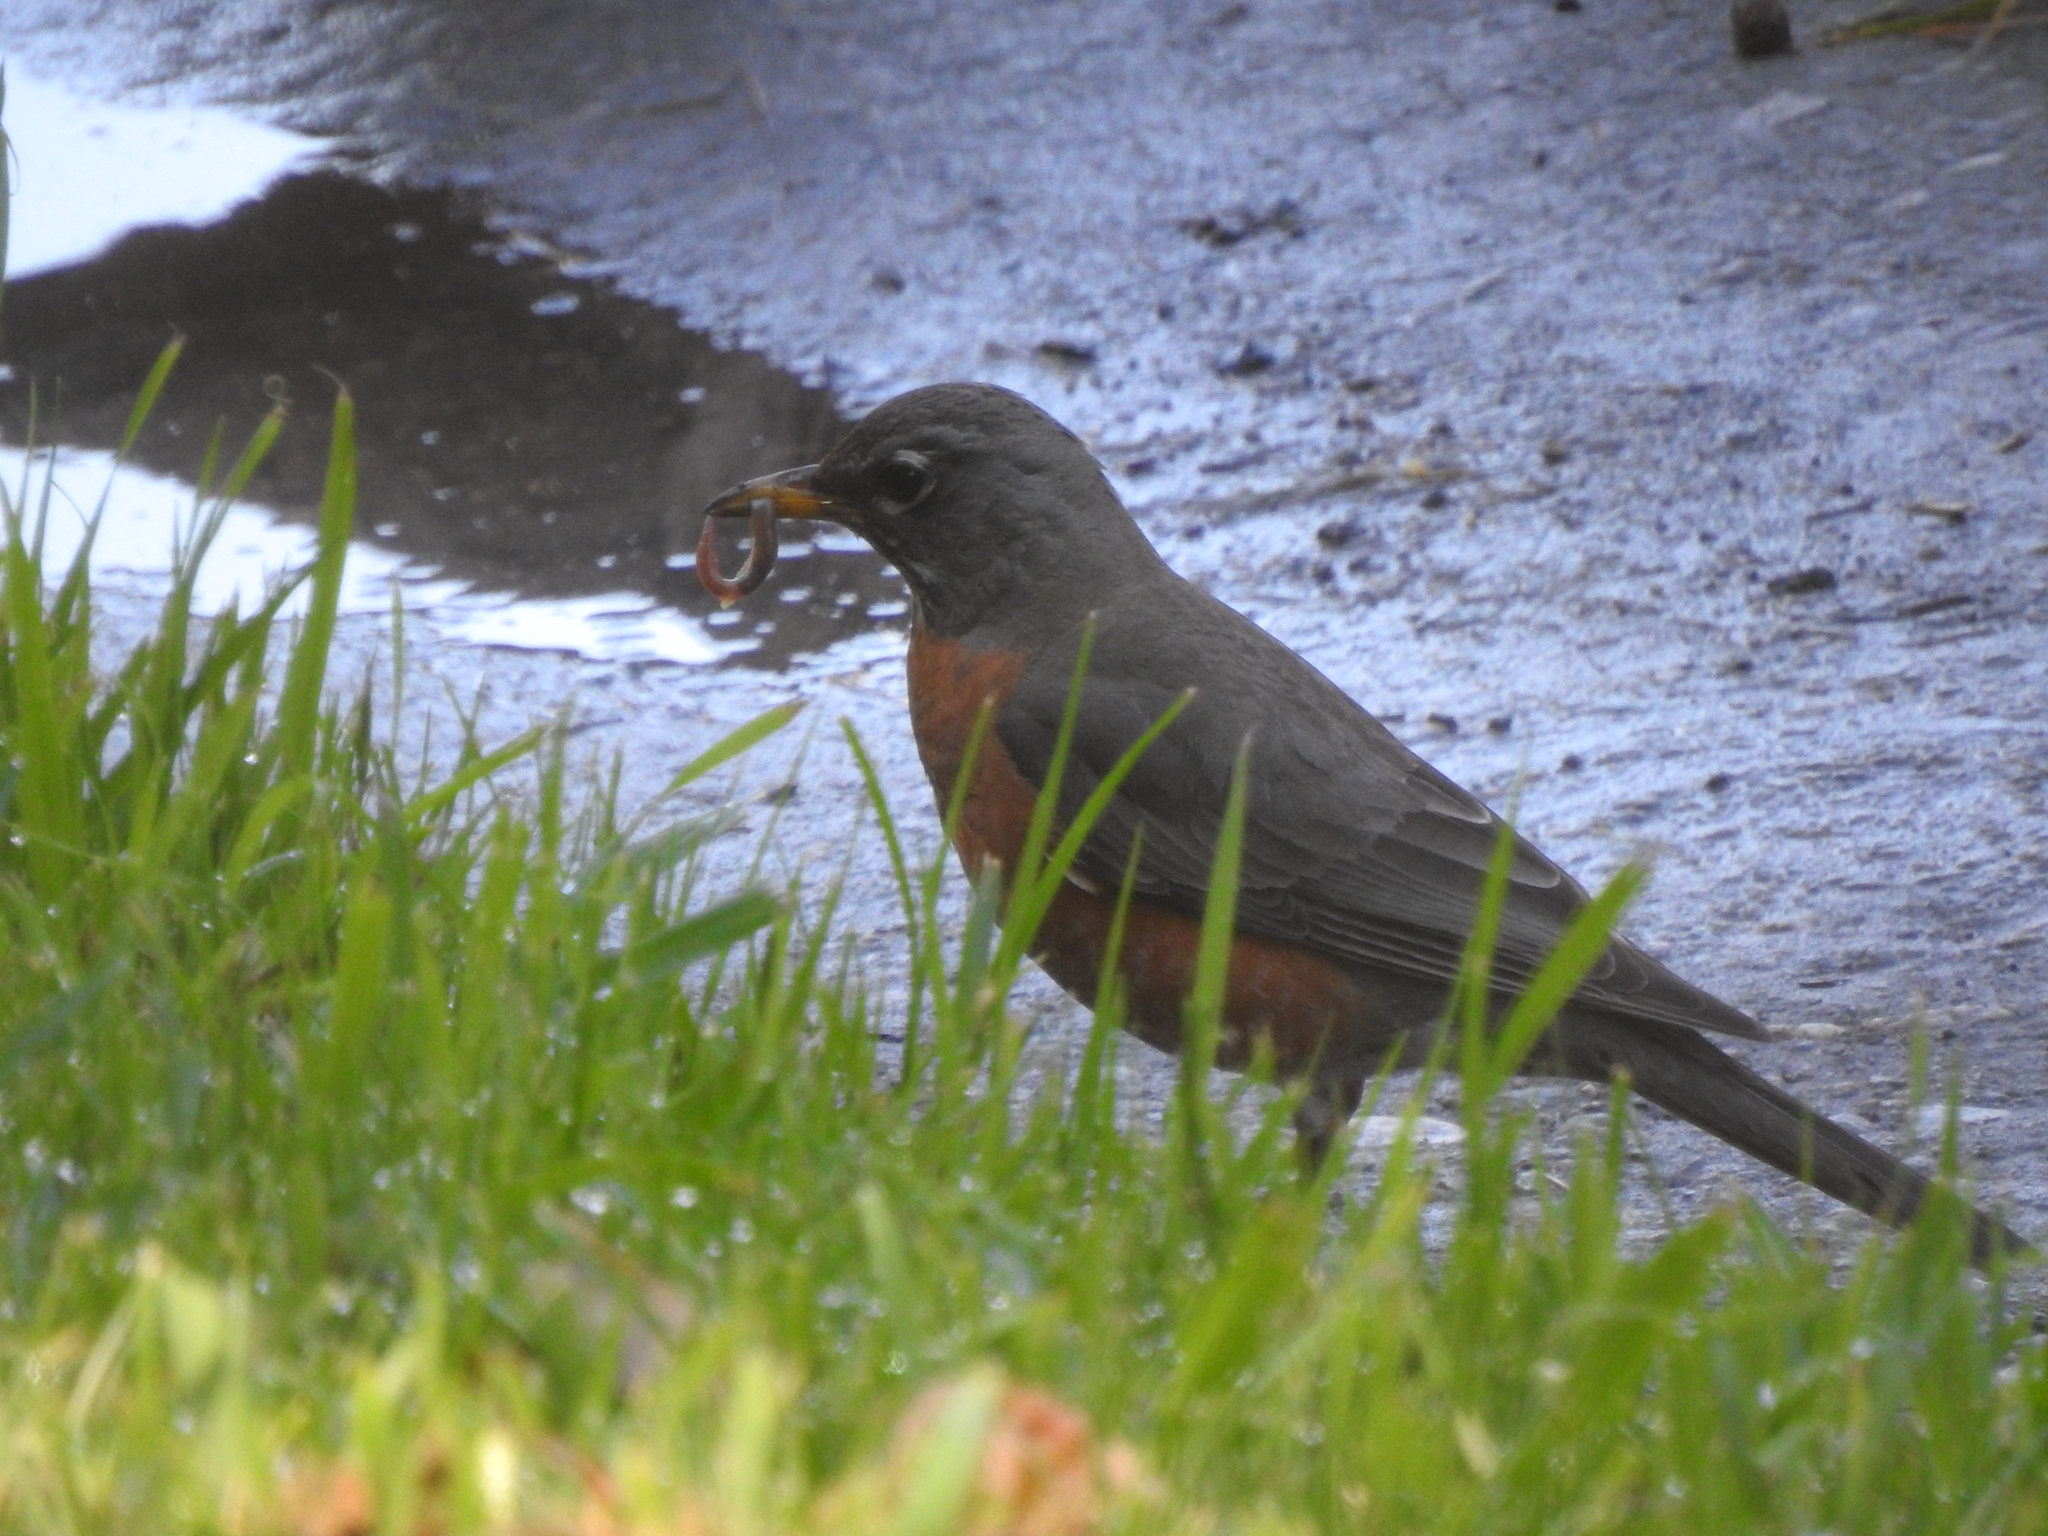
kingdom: Animalia
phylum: Chordata
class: Aves
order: Passeriformes
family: Turdidae
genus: Turdus
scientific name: Turdus migratorius
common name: American robin
